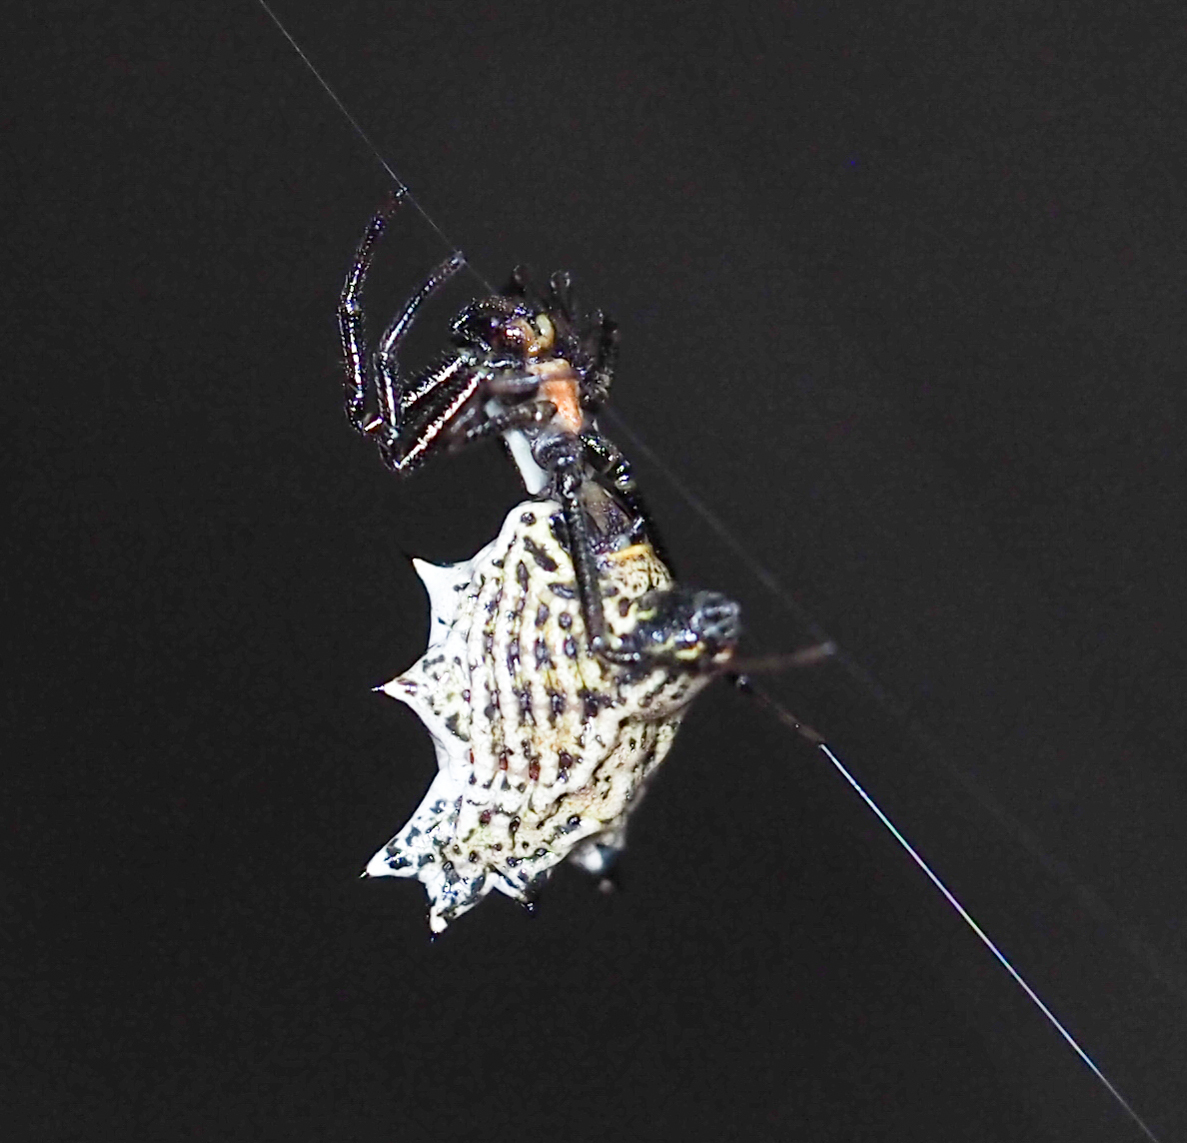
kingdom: Animalia
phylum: Arthropoda
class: Arachnida
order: Araneae
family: Araneidae
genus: Micrathena
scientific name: Micrathena gracilis
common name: Orb weavers
